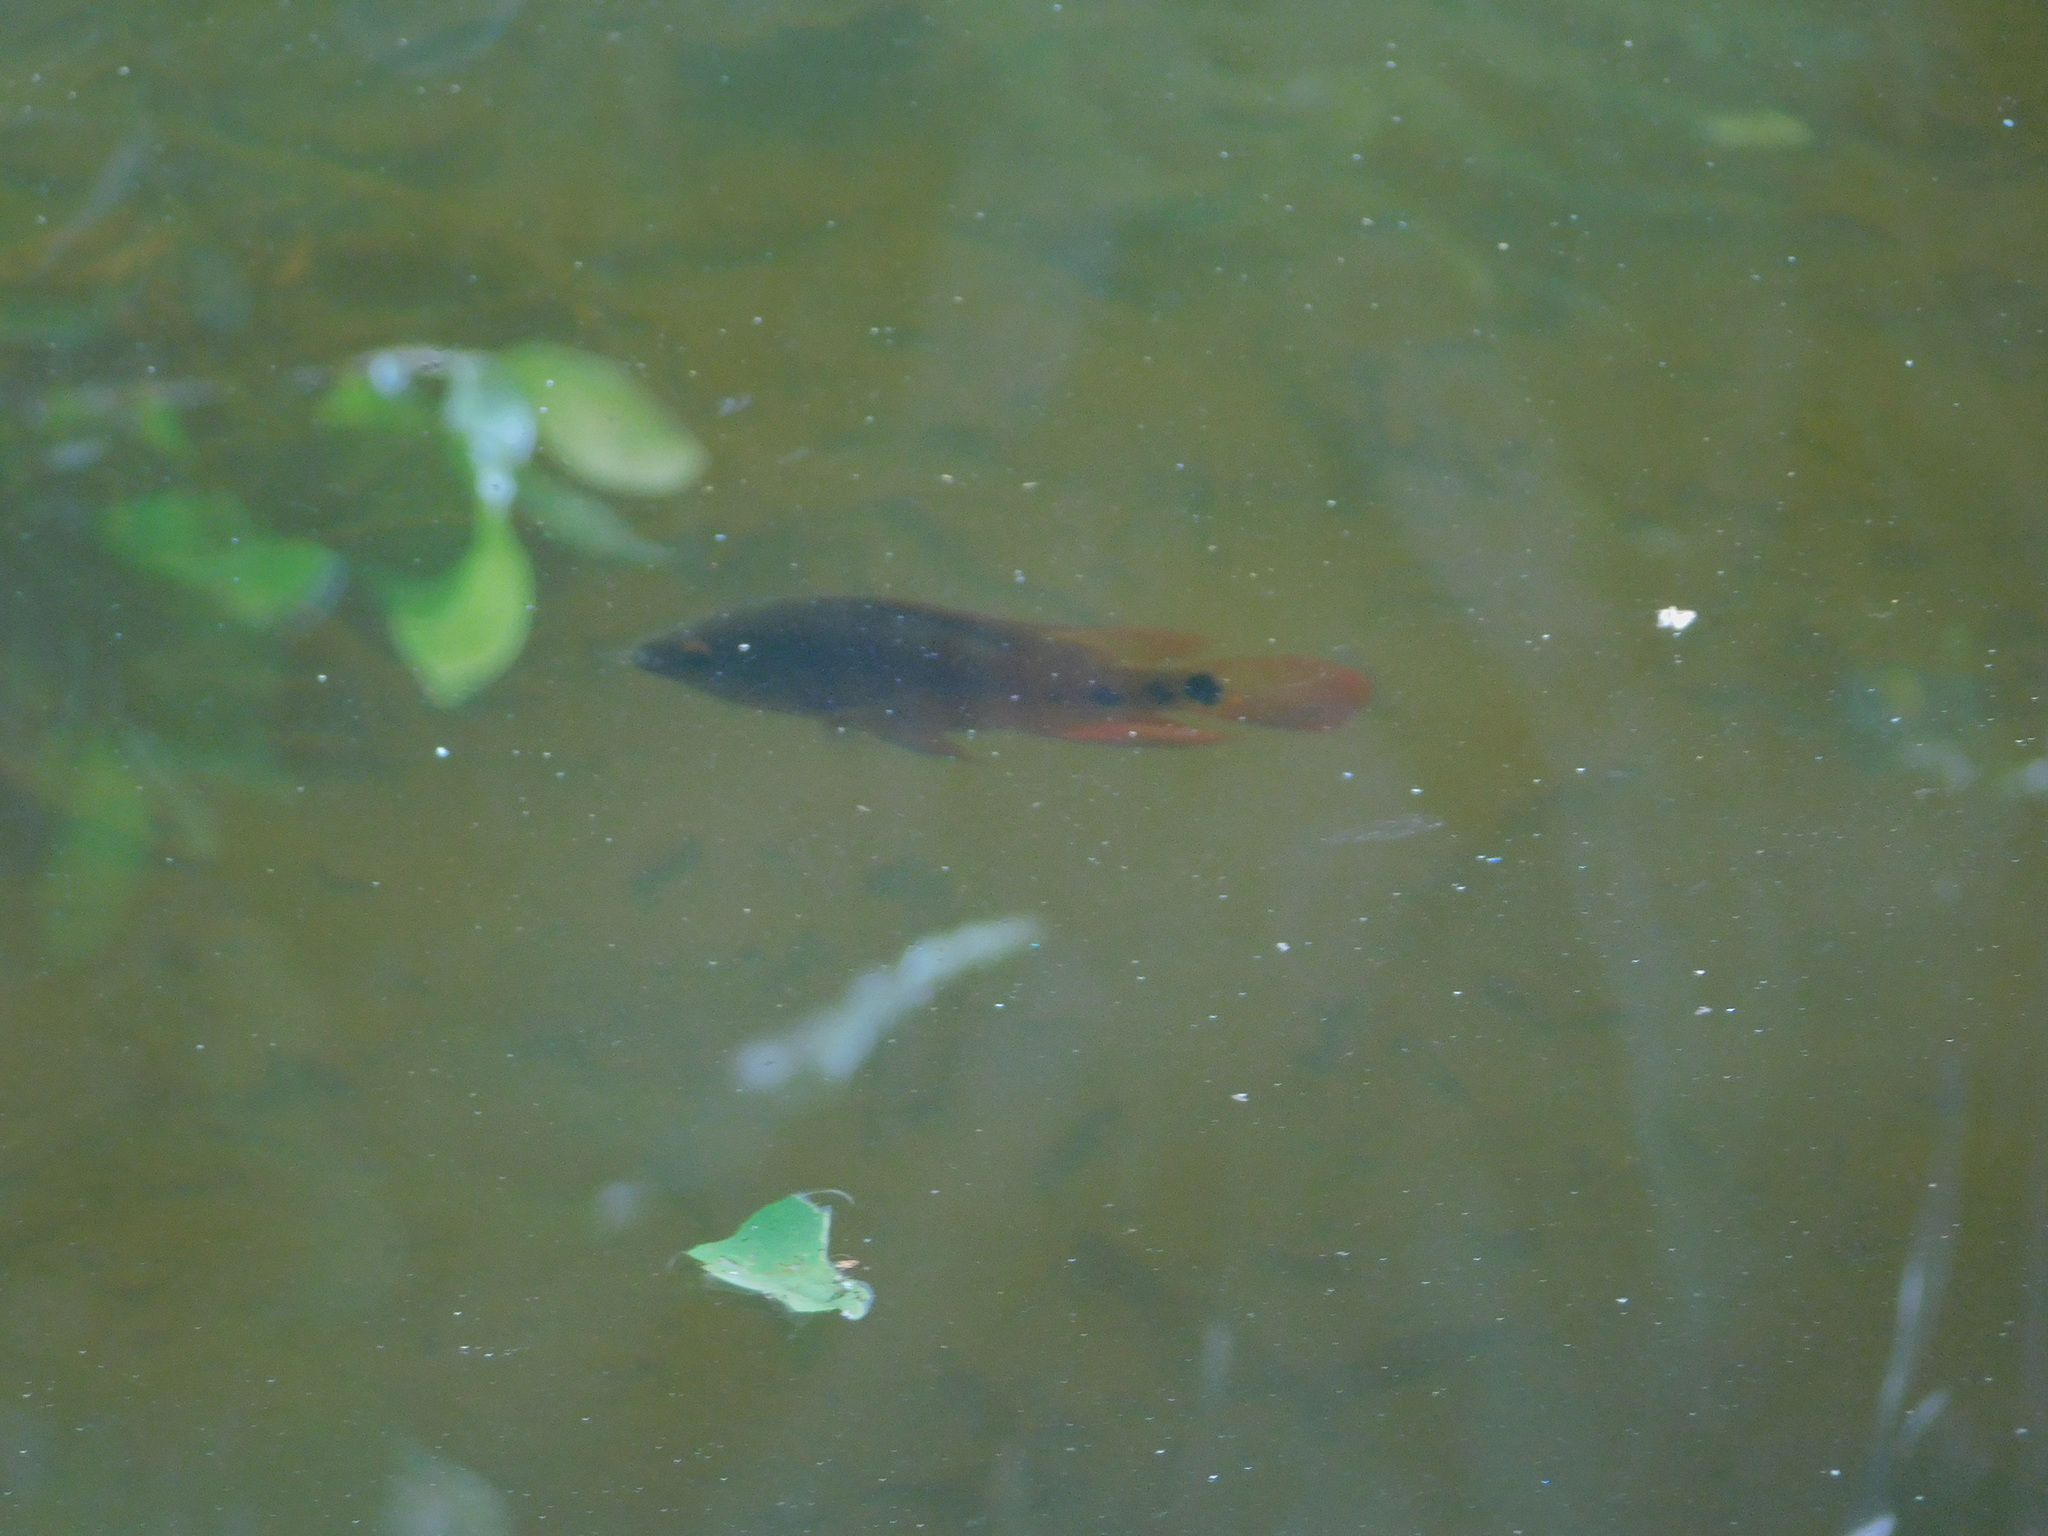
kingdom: Animalia
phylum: Chordata
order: Perciformes
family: Cichlidae
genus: Mayaheros
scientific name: Mayaheros urophthalmus
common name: Mayan cichlid
